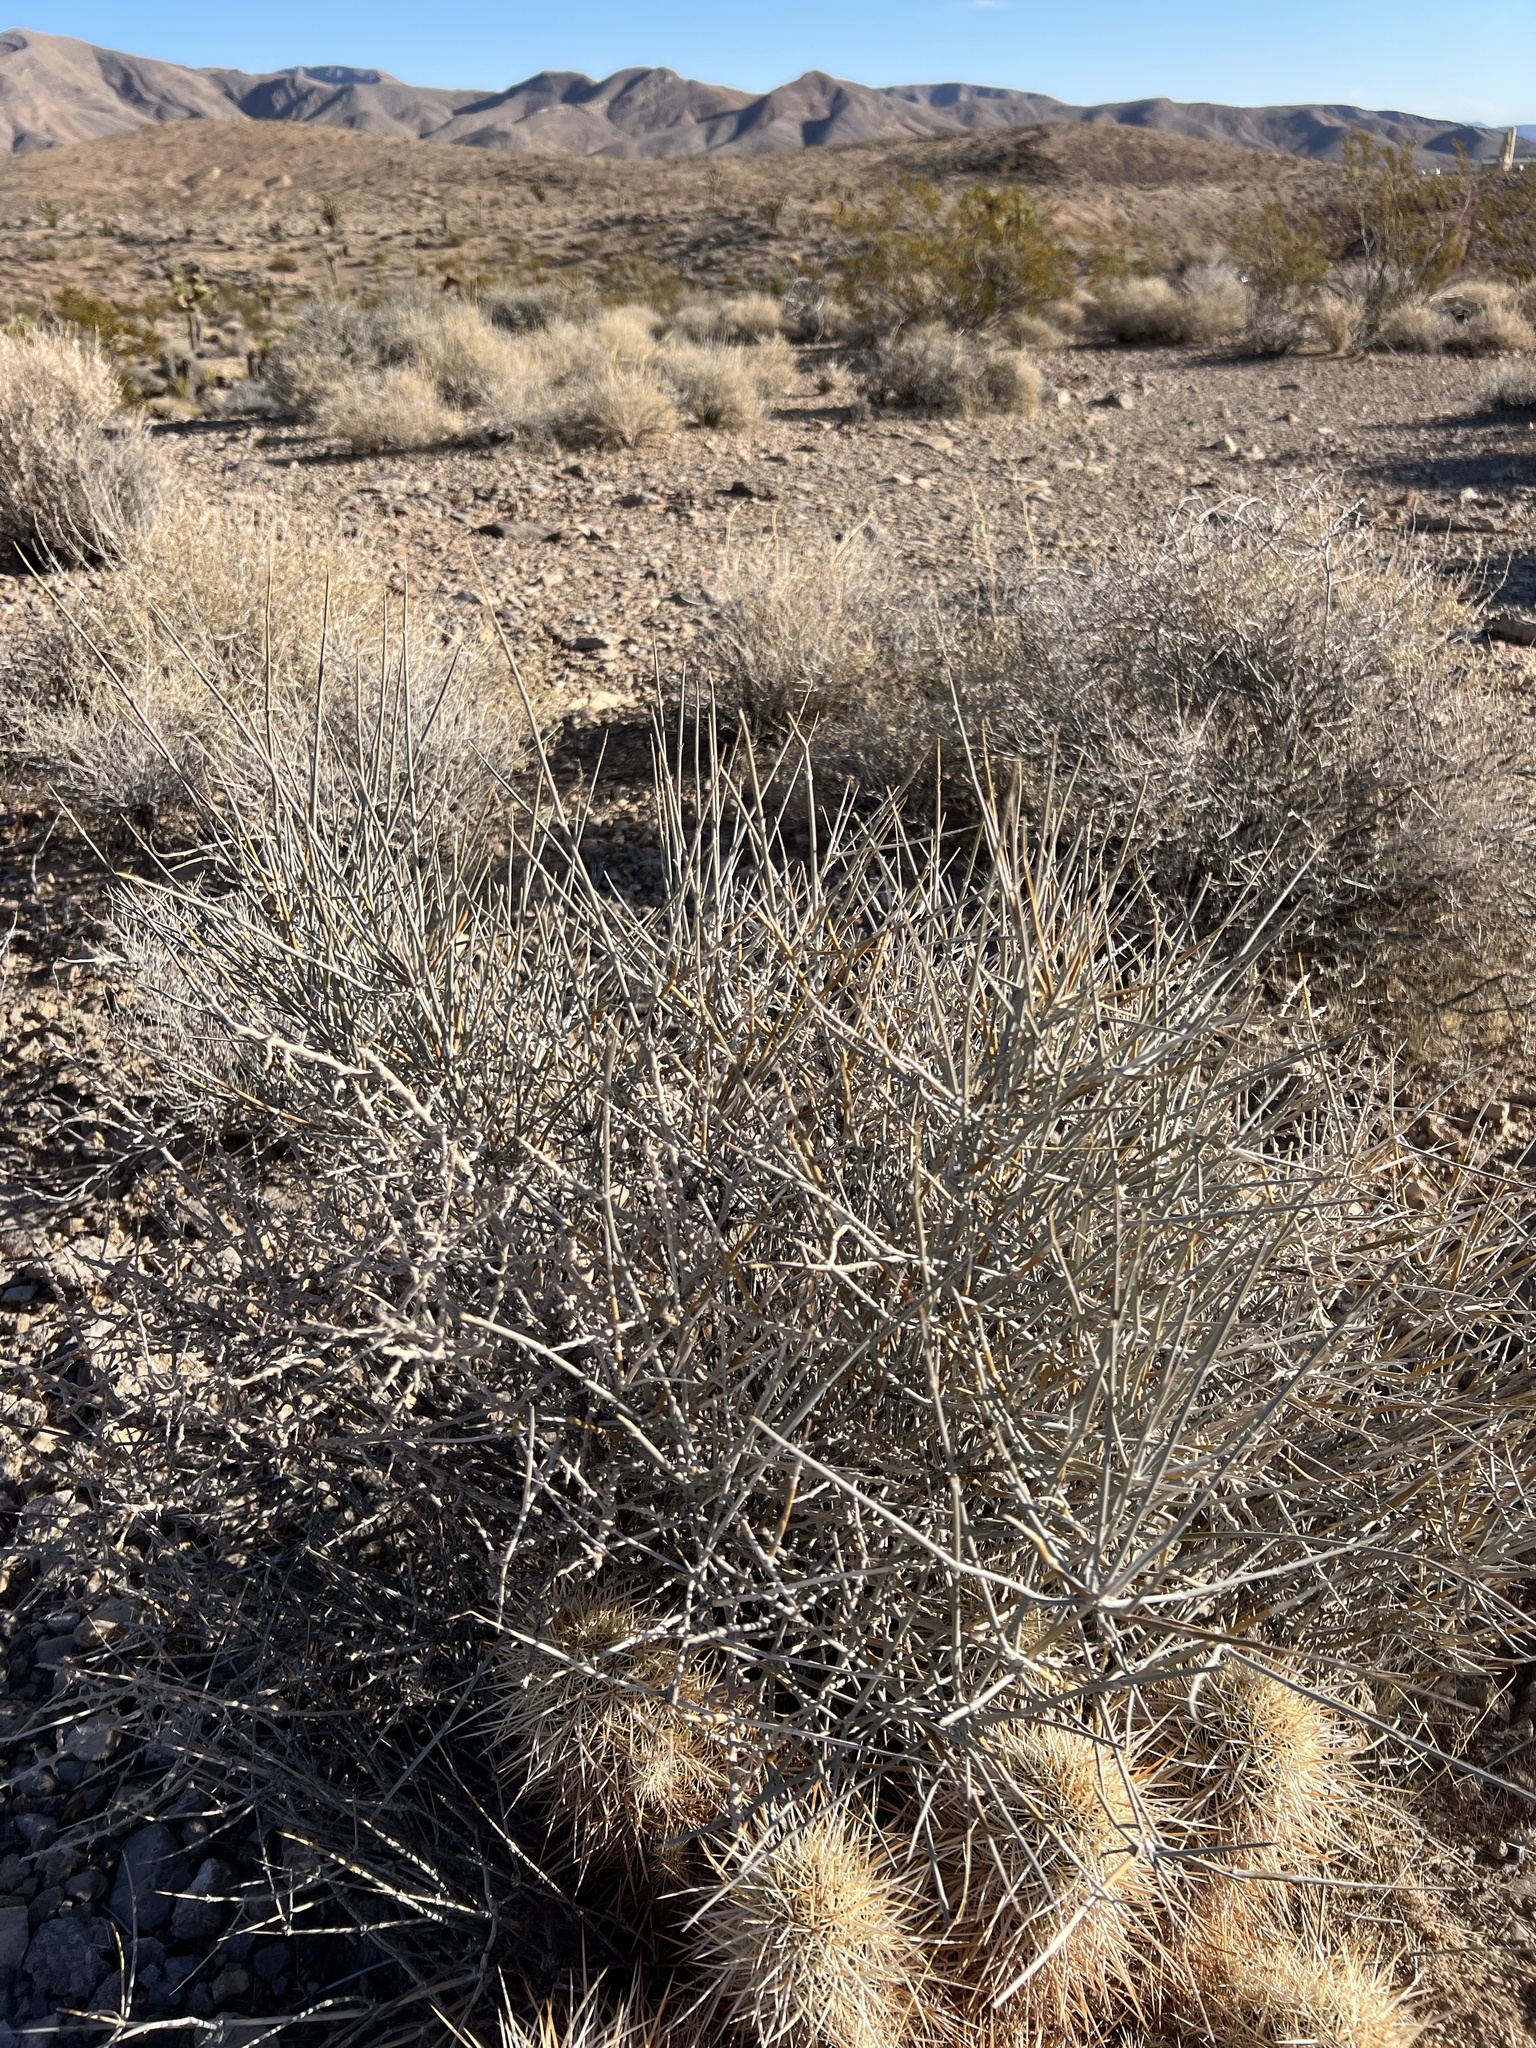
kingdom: Plantae
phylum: Tracheophyta
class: Gnetopsida
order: Ephedrales
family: Ephedraceae
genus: Ephedra
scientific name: Ephedra nevadensis
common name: Gray ephedra
